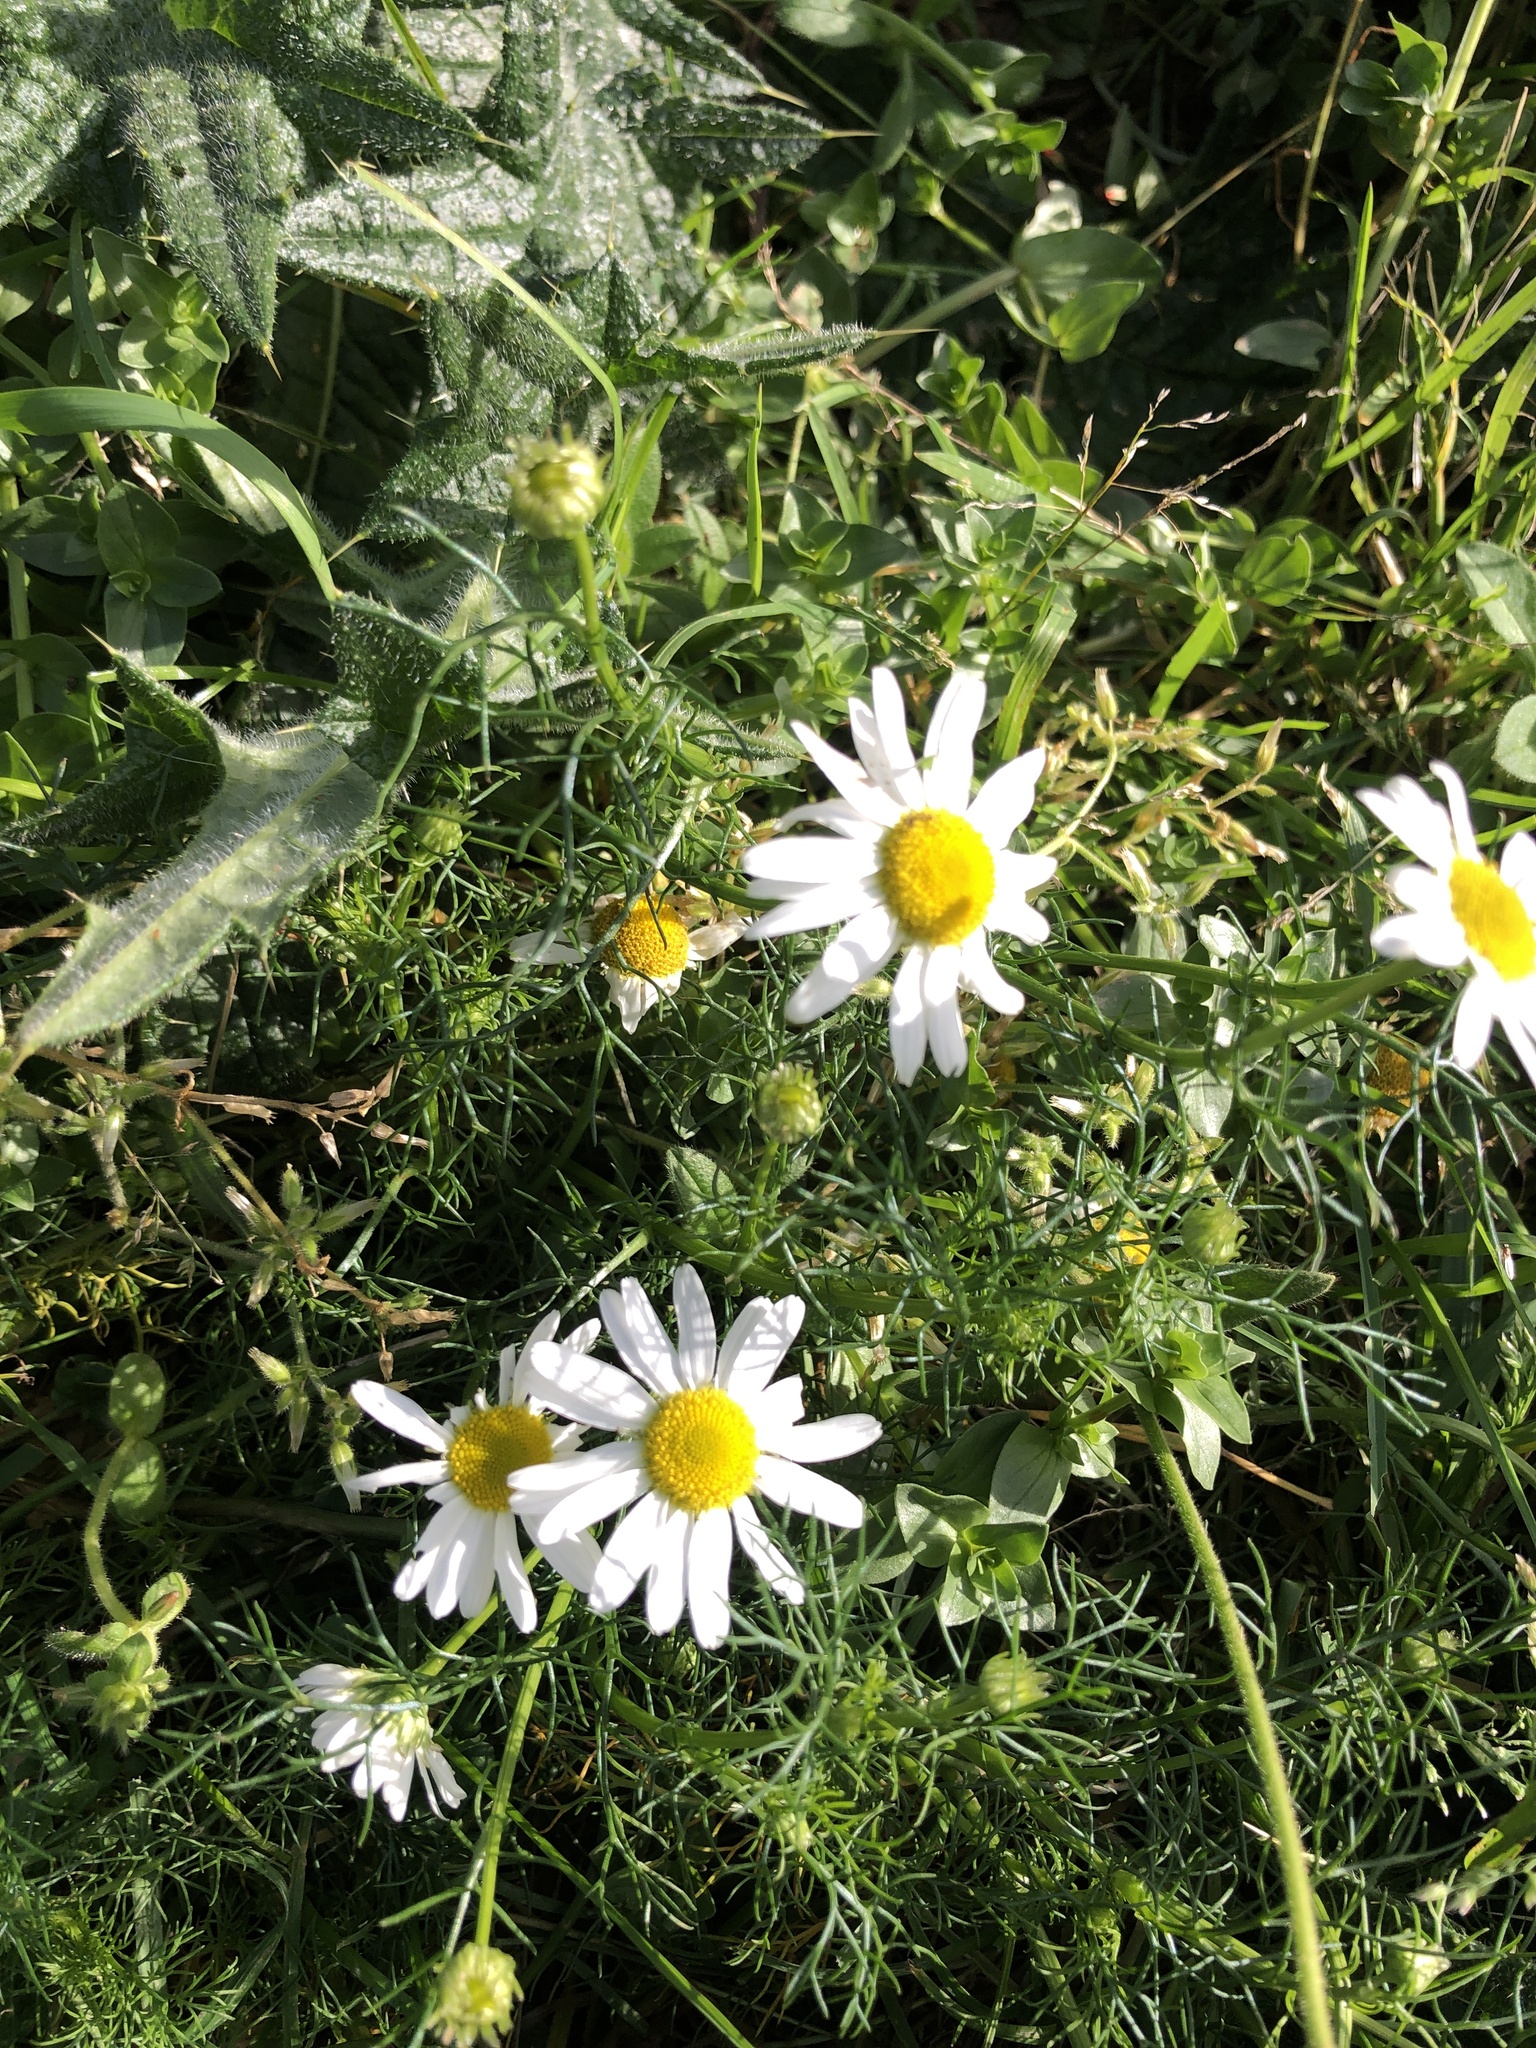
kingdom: Plantae
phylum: Tracheophyta
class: Magnoliopsida
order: Asterales
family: Asteraceae
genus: Tripleurospermum
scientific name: Tripleurospermum inodorum
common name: Scentless mayweed
